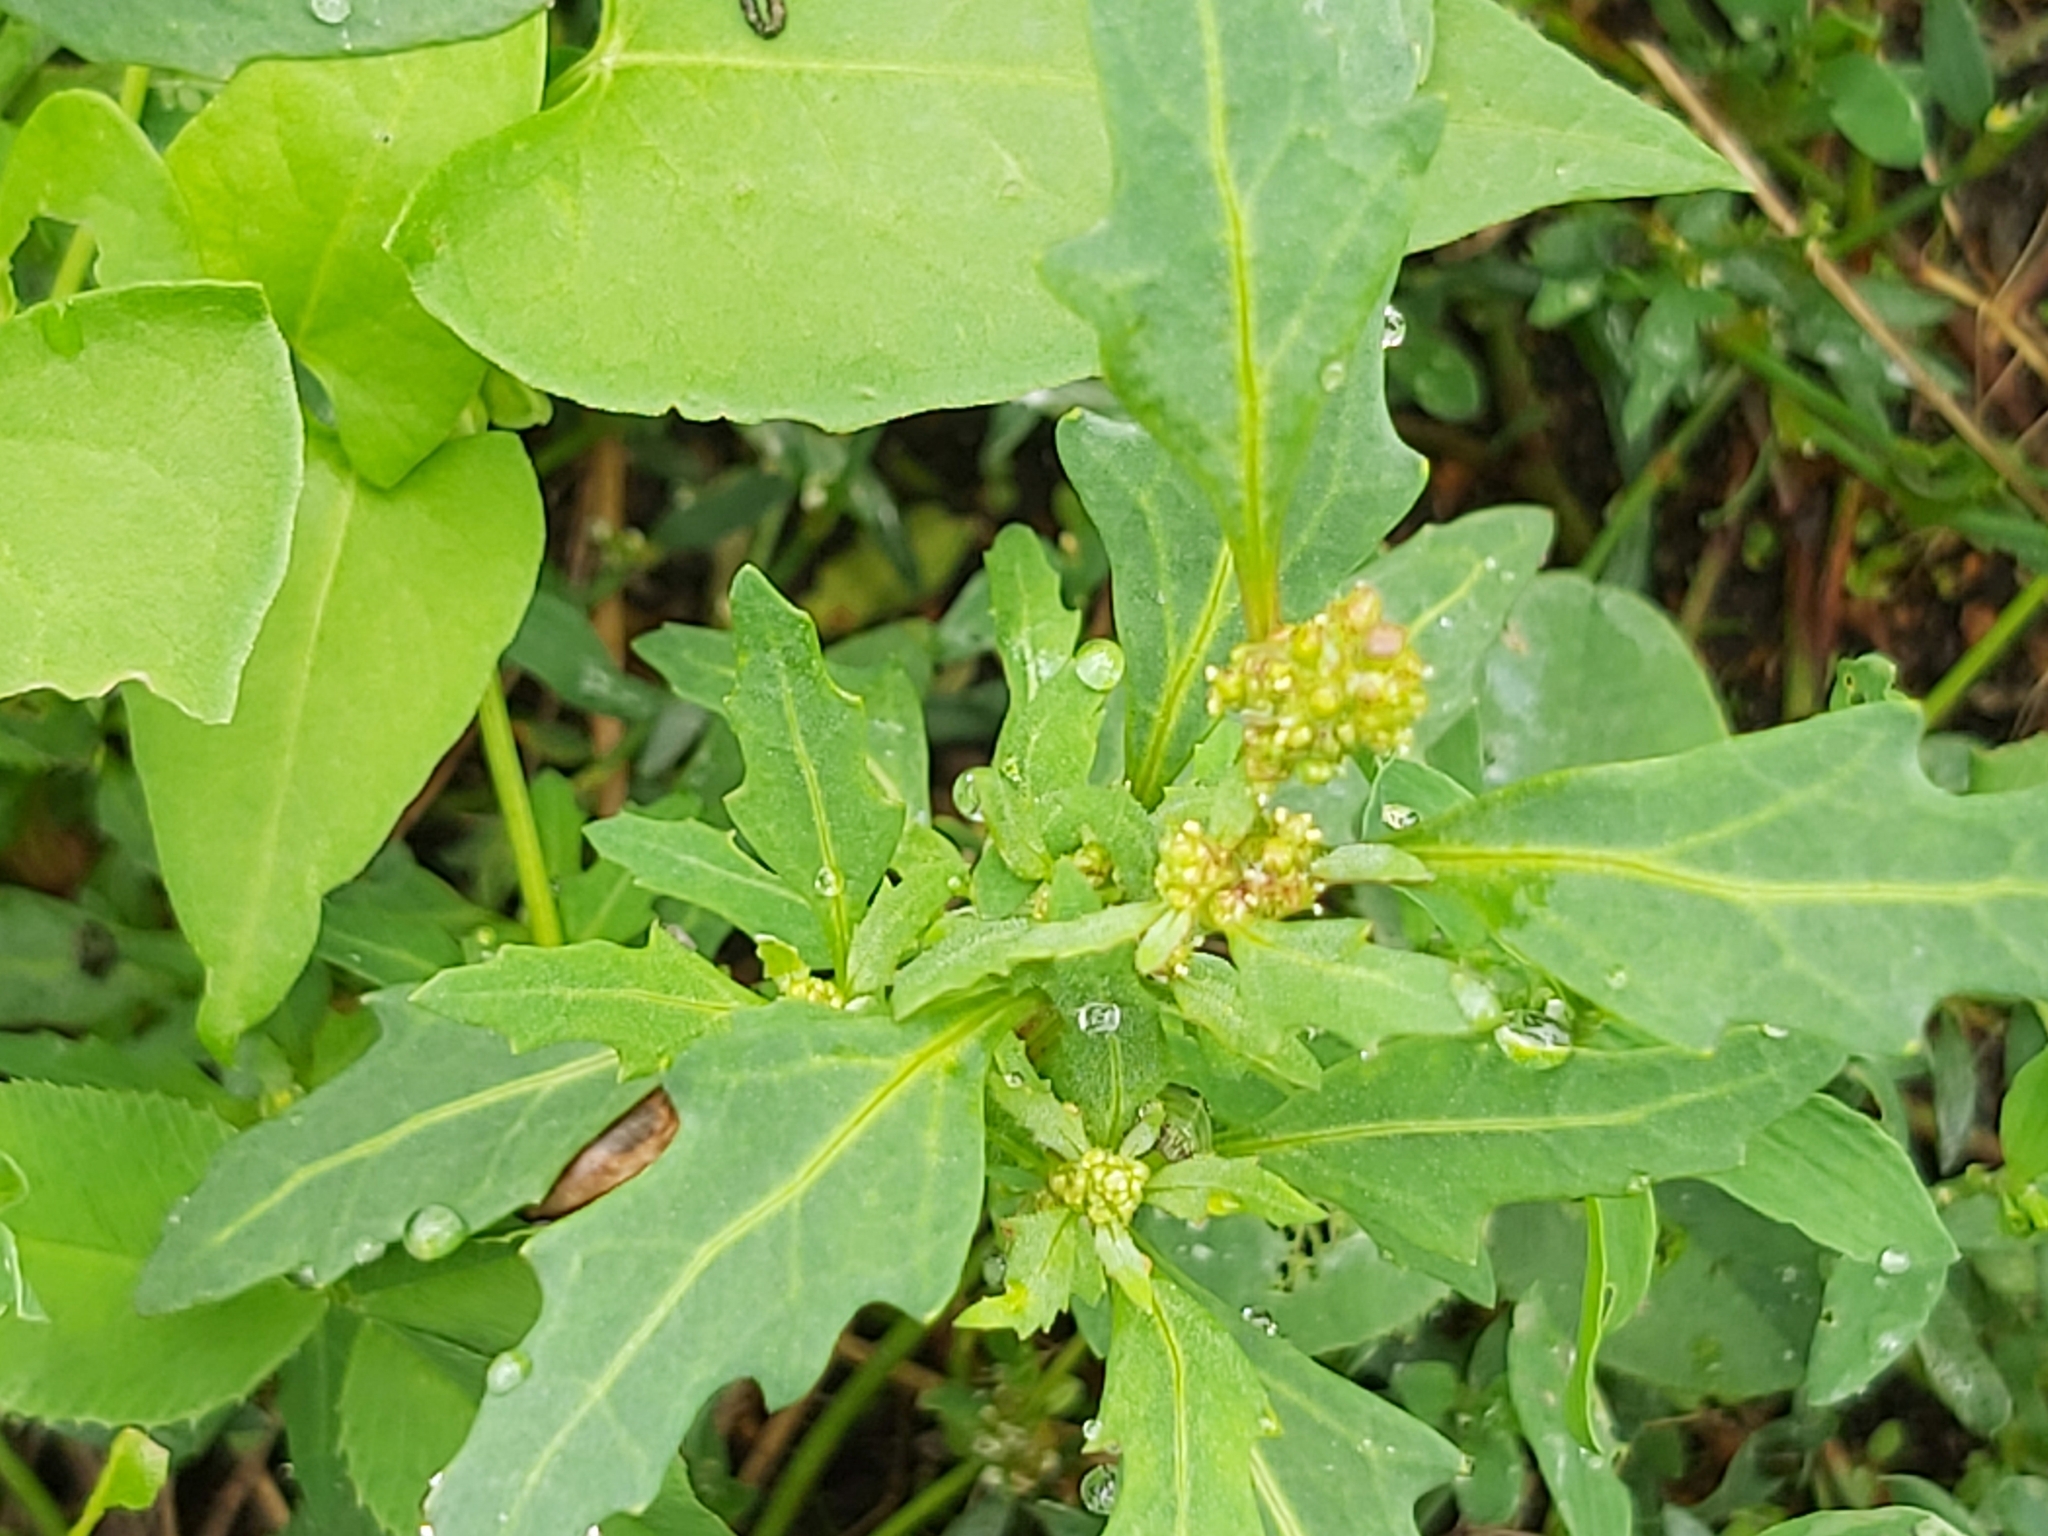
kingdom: Plantae
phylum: Tracheophyta
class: Magnoliopsida
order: Caryophyllales
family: Amaranthaceae
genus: Oxybasis
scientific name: Oxybasis glauca
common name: Glaucous goosefoot
